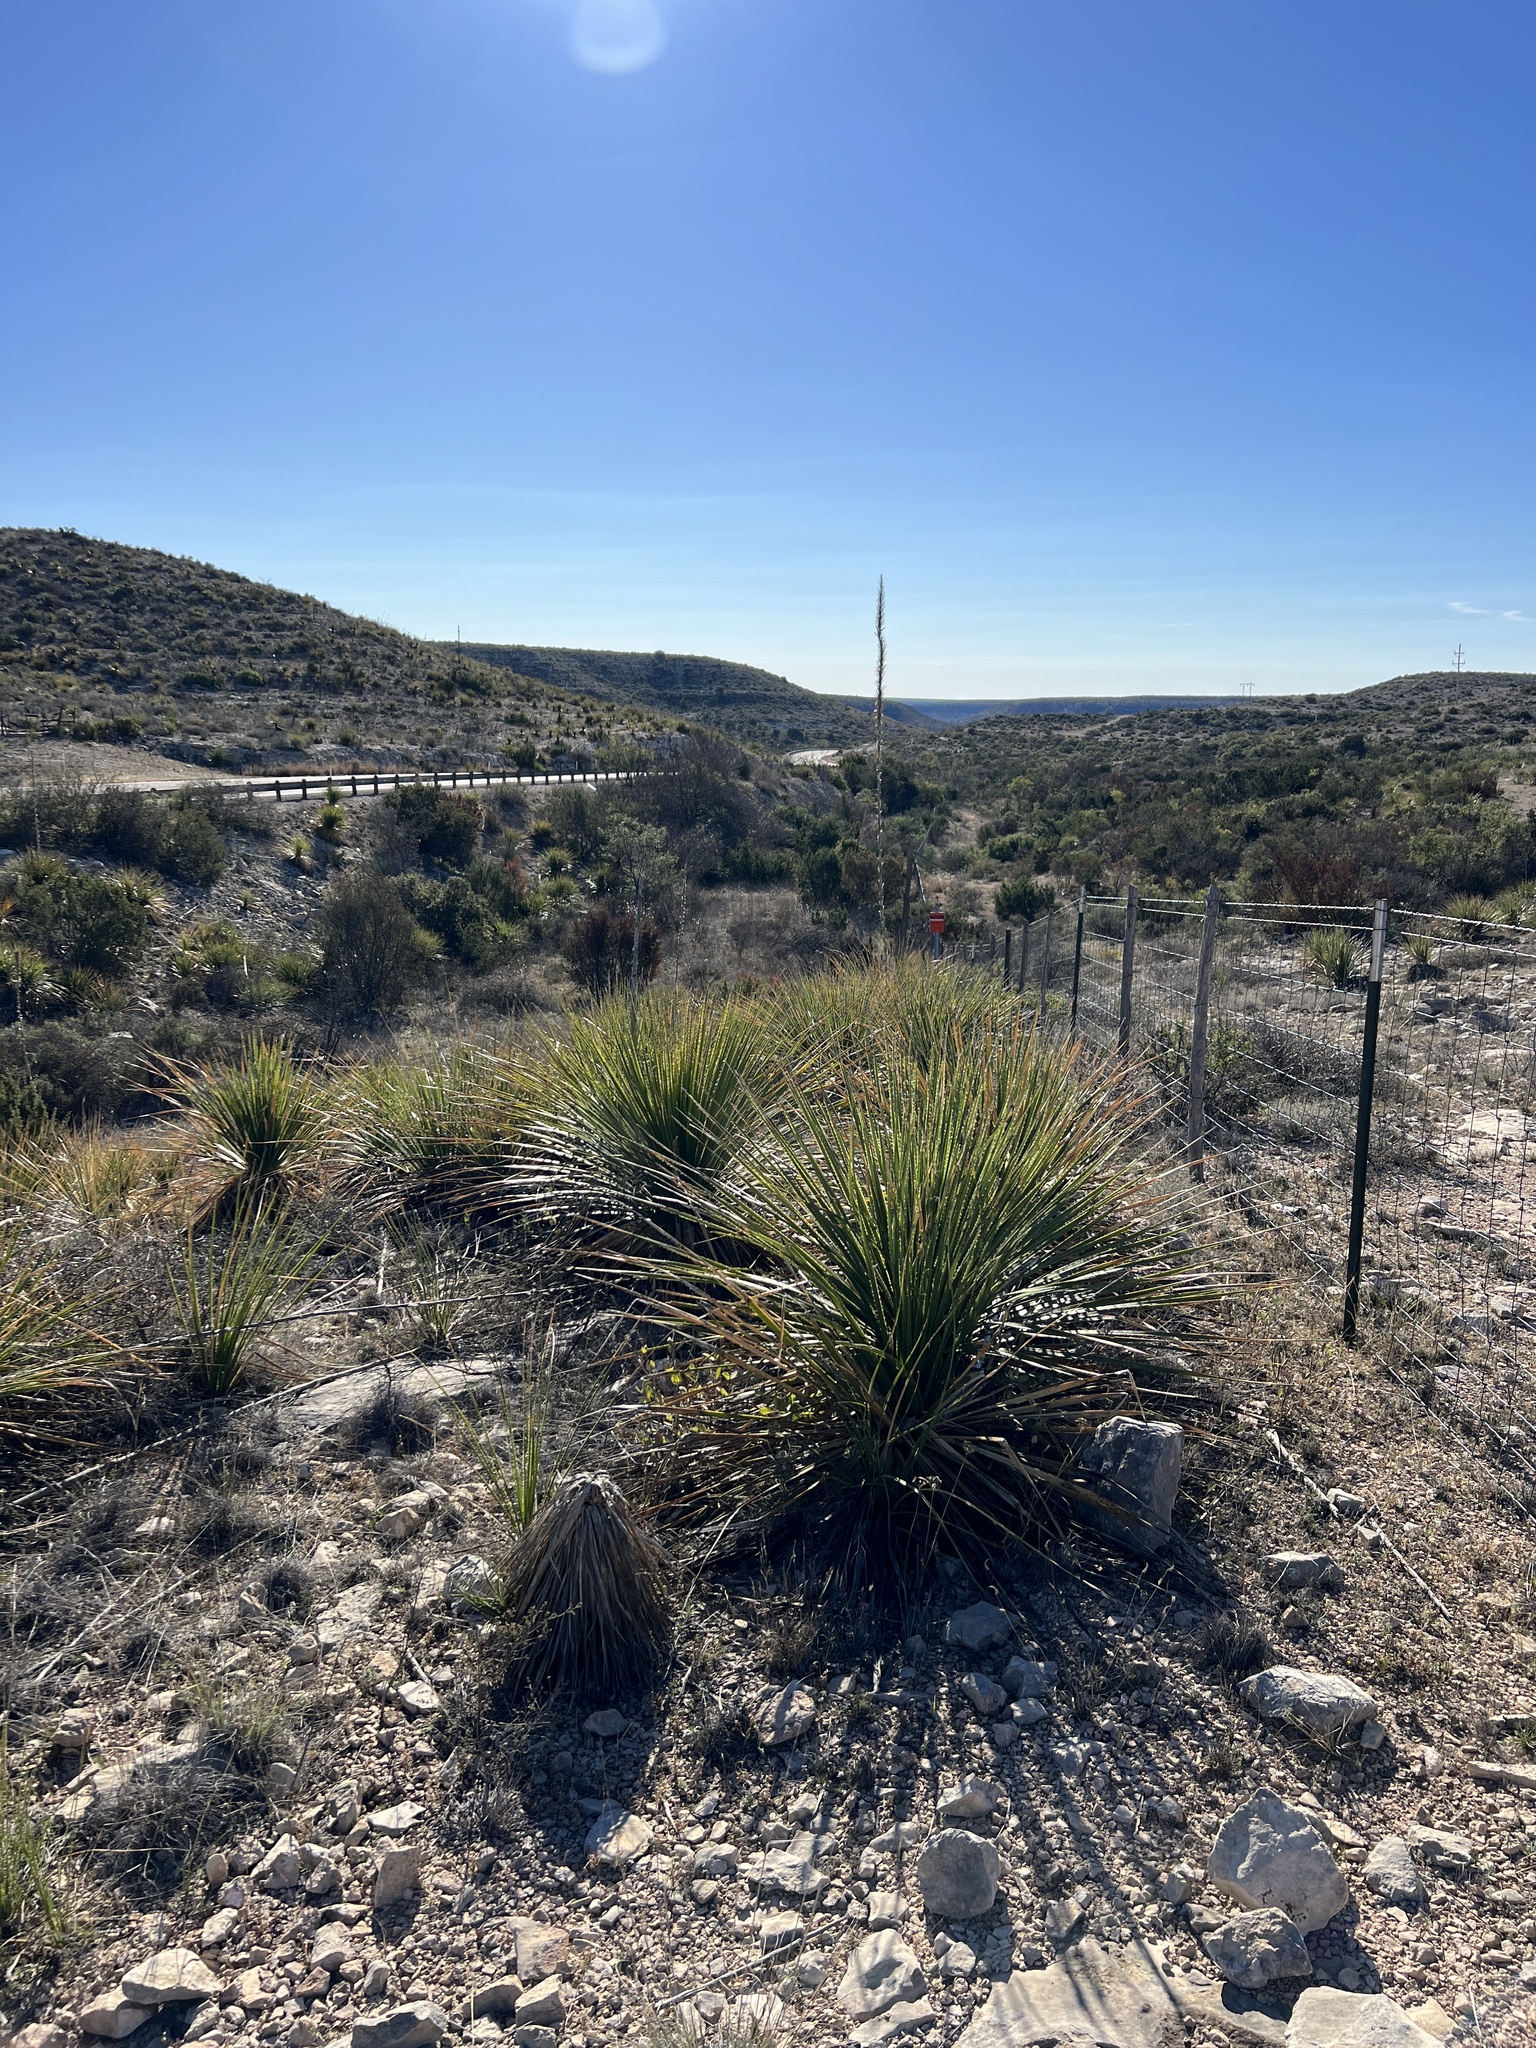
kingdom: Plantae
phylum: Tracheophyta
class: Liliopsida
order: Asparagales
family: Asparagaceae
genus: Dasylirion
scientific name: Dasylirion texanum
